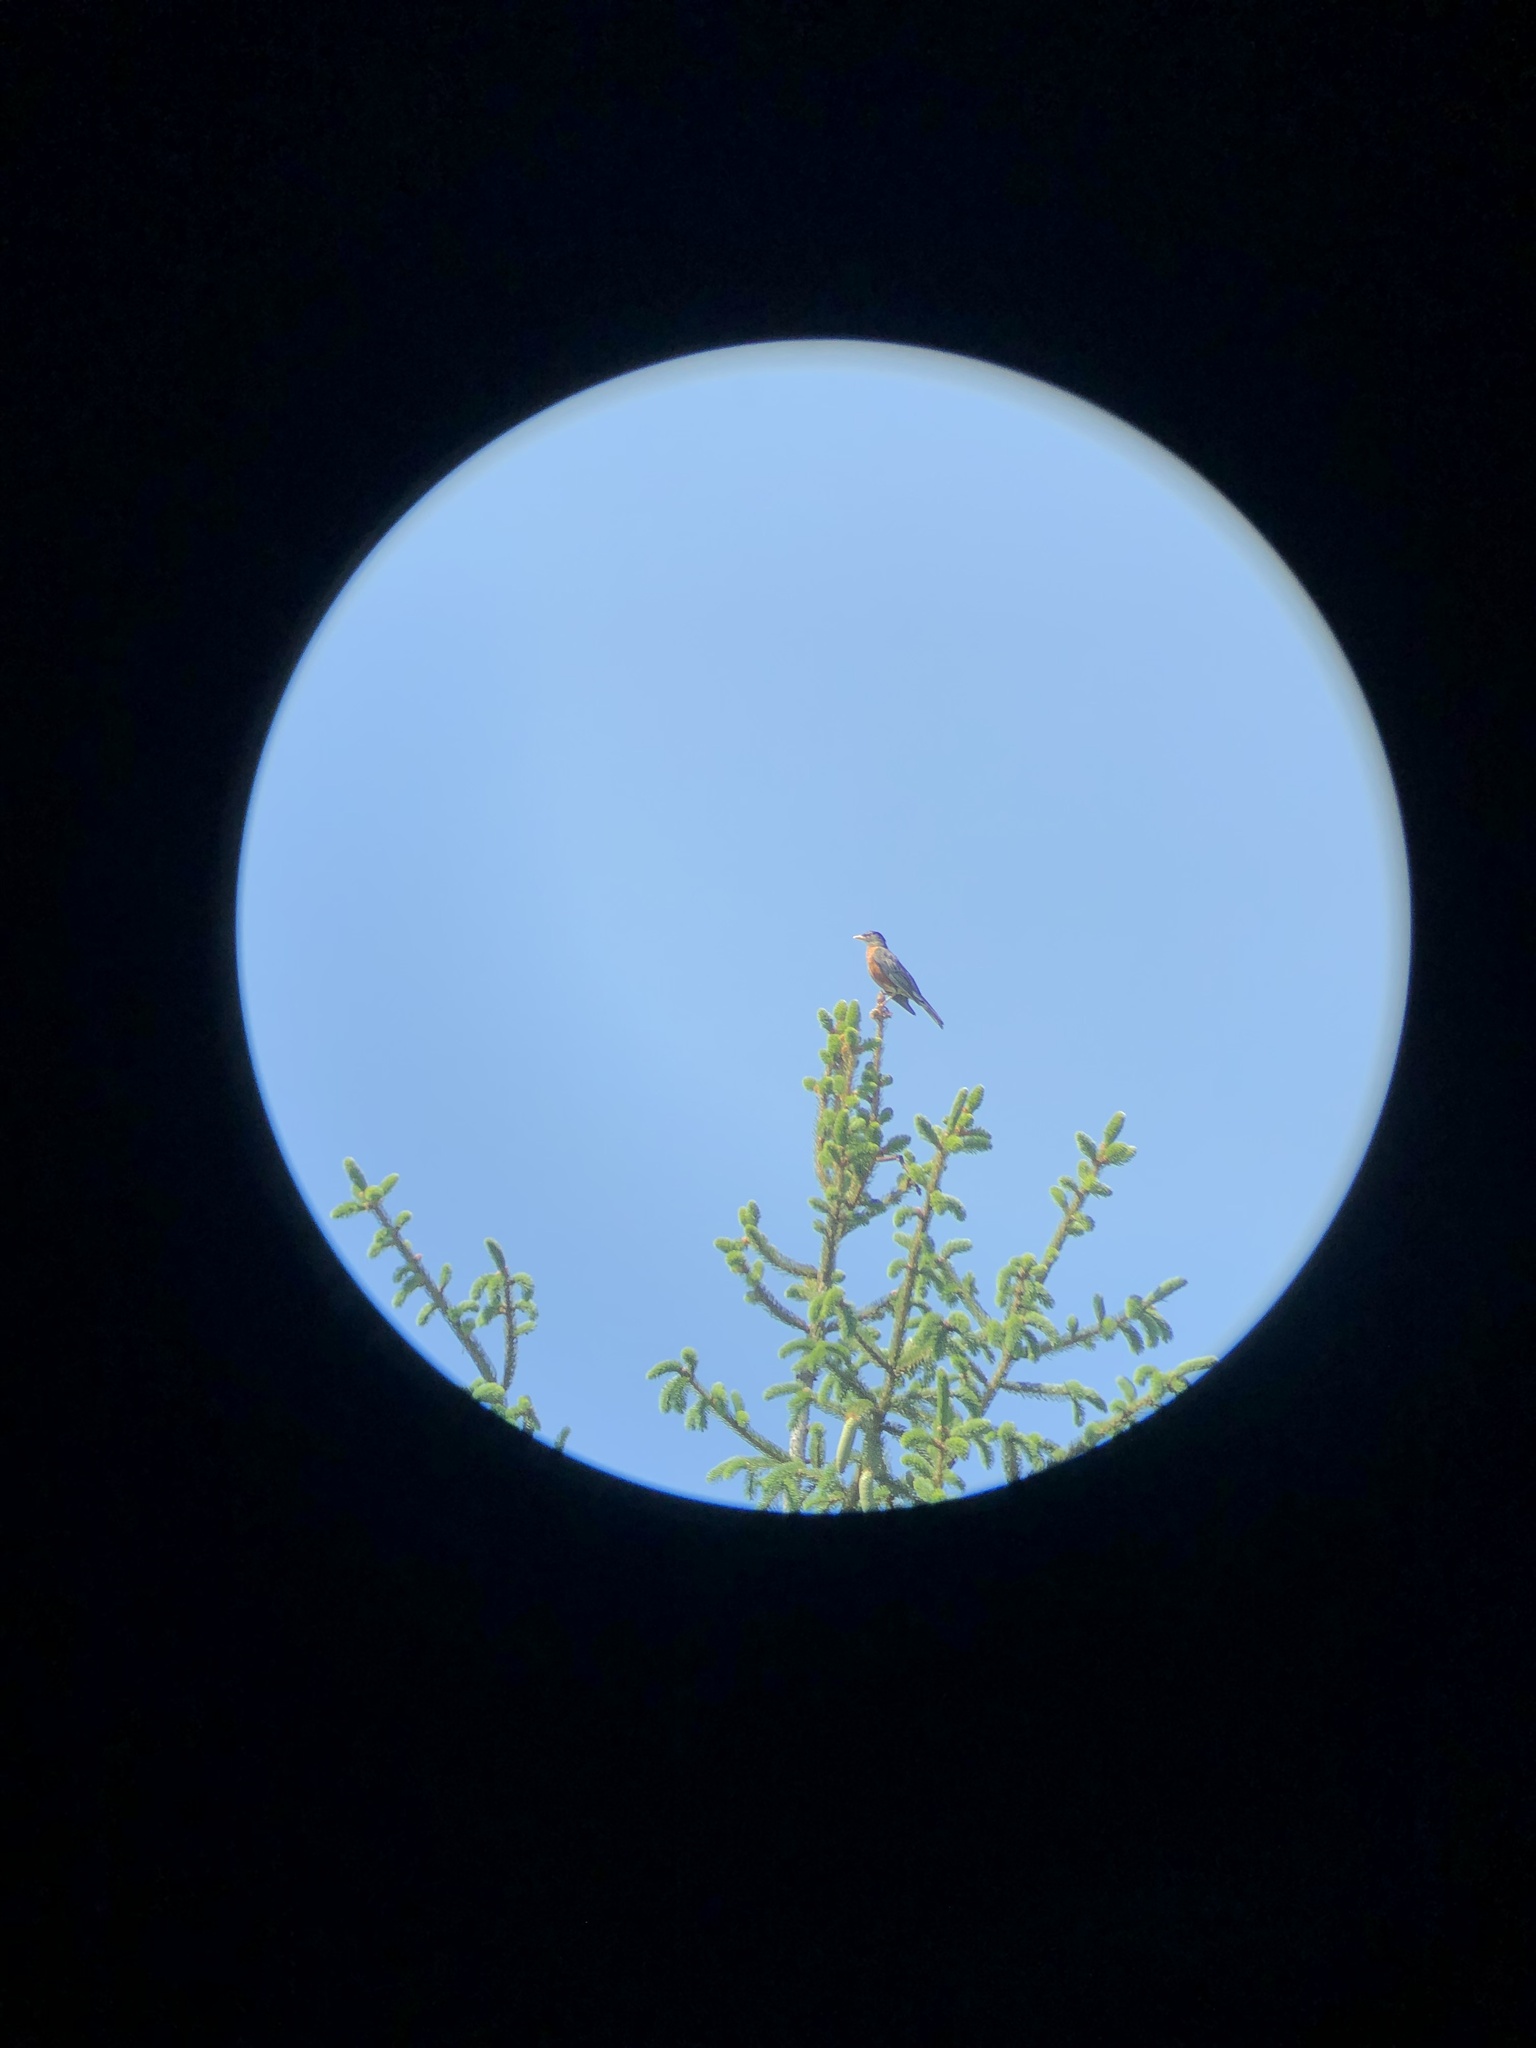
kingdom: Animalia
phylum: Chordata
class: Aves
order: Passeriformes
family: Turdidae
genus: Turdus
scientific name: Turdus migratorius
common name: American robin
